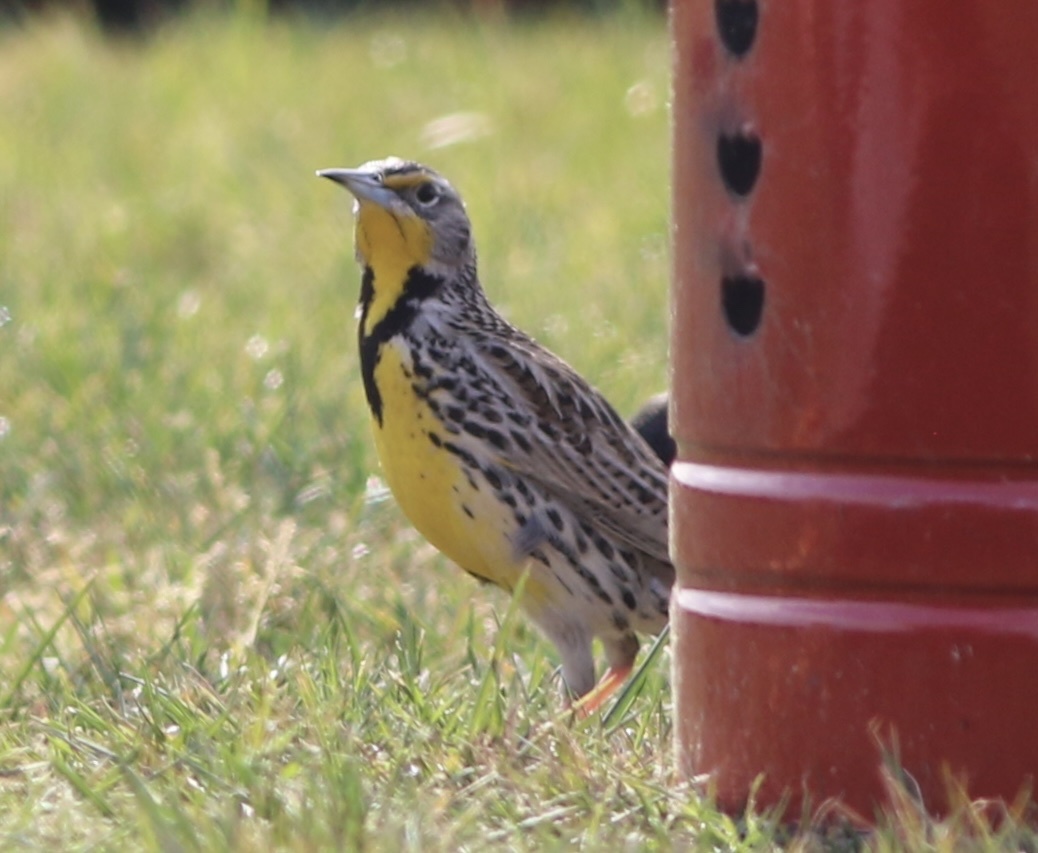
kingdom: Animalia
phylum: Chordata
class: Aves
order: Passeriformes
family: Icteridae
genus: Sturnella
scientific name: Sturnella neglecta
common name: Western meadowlark
